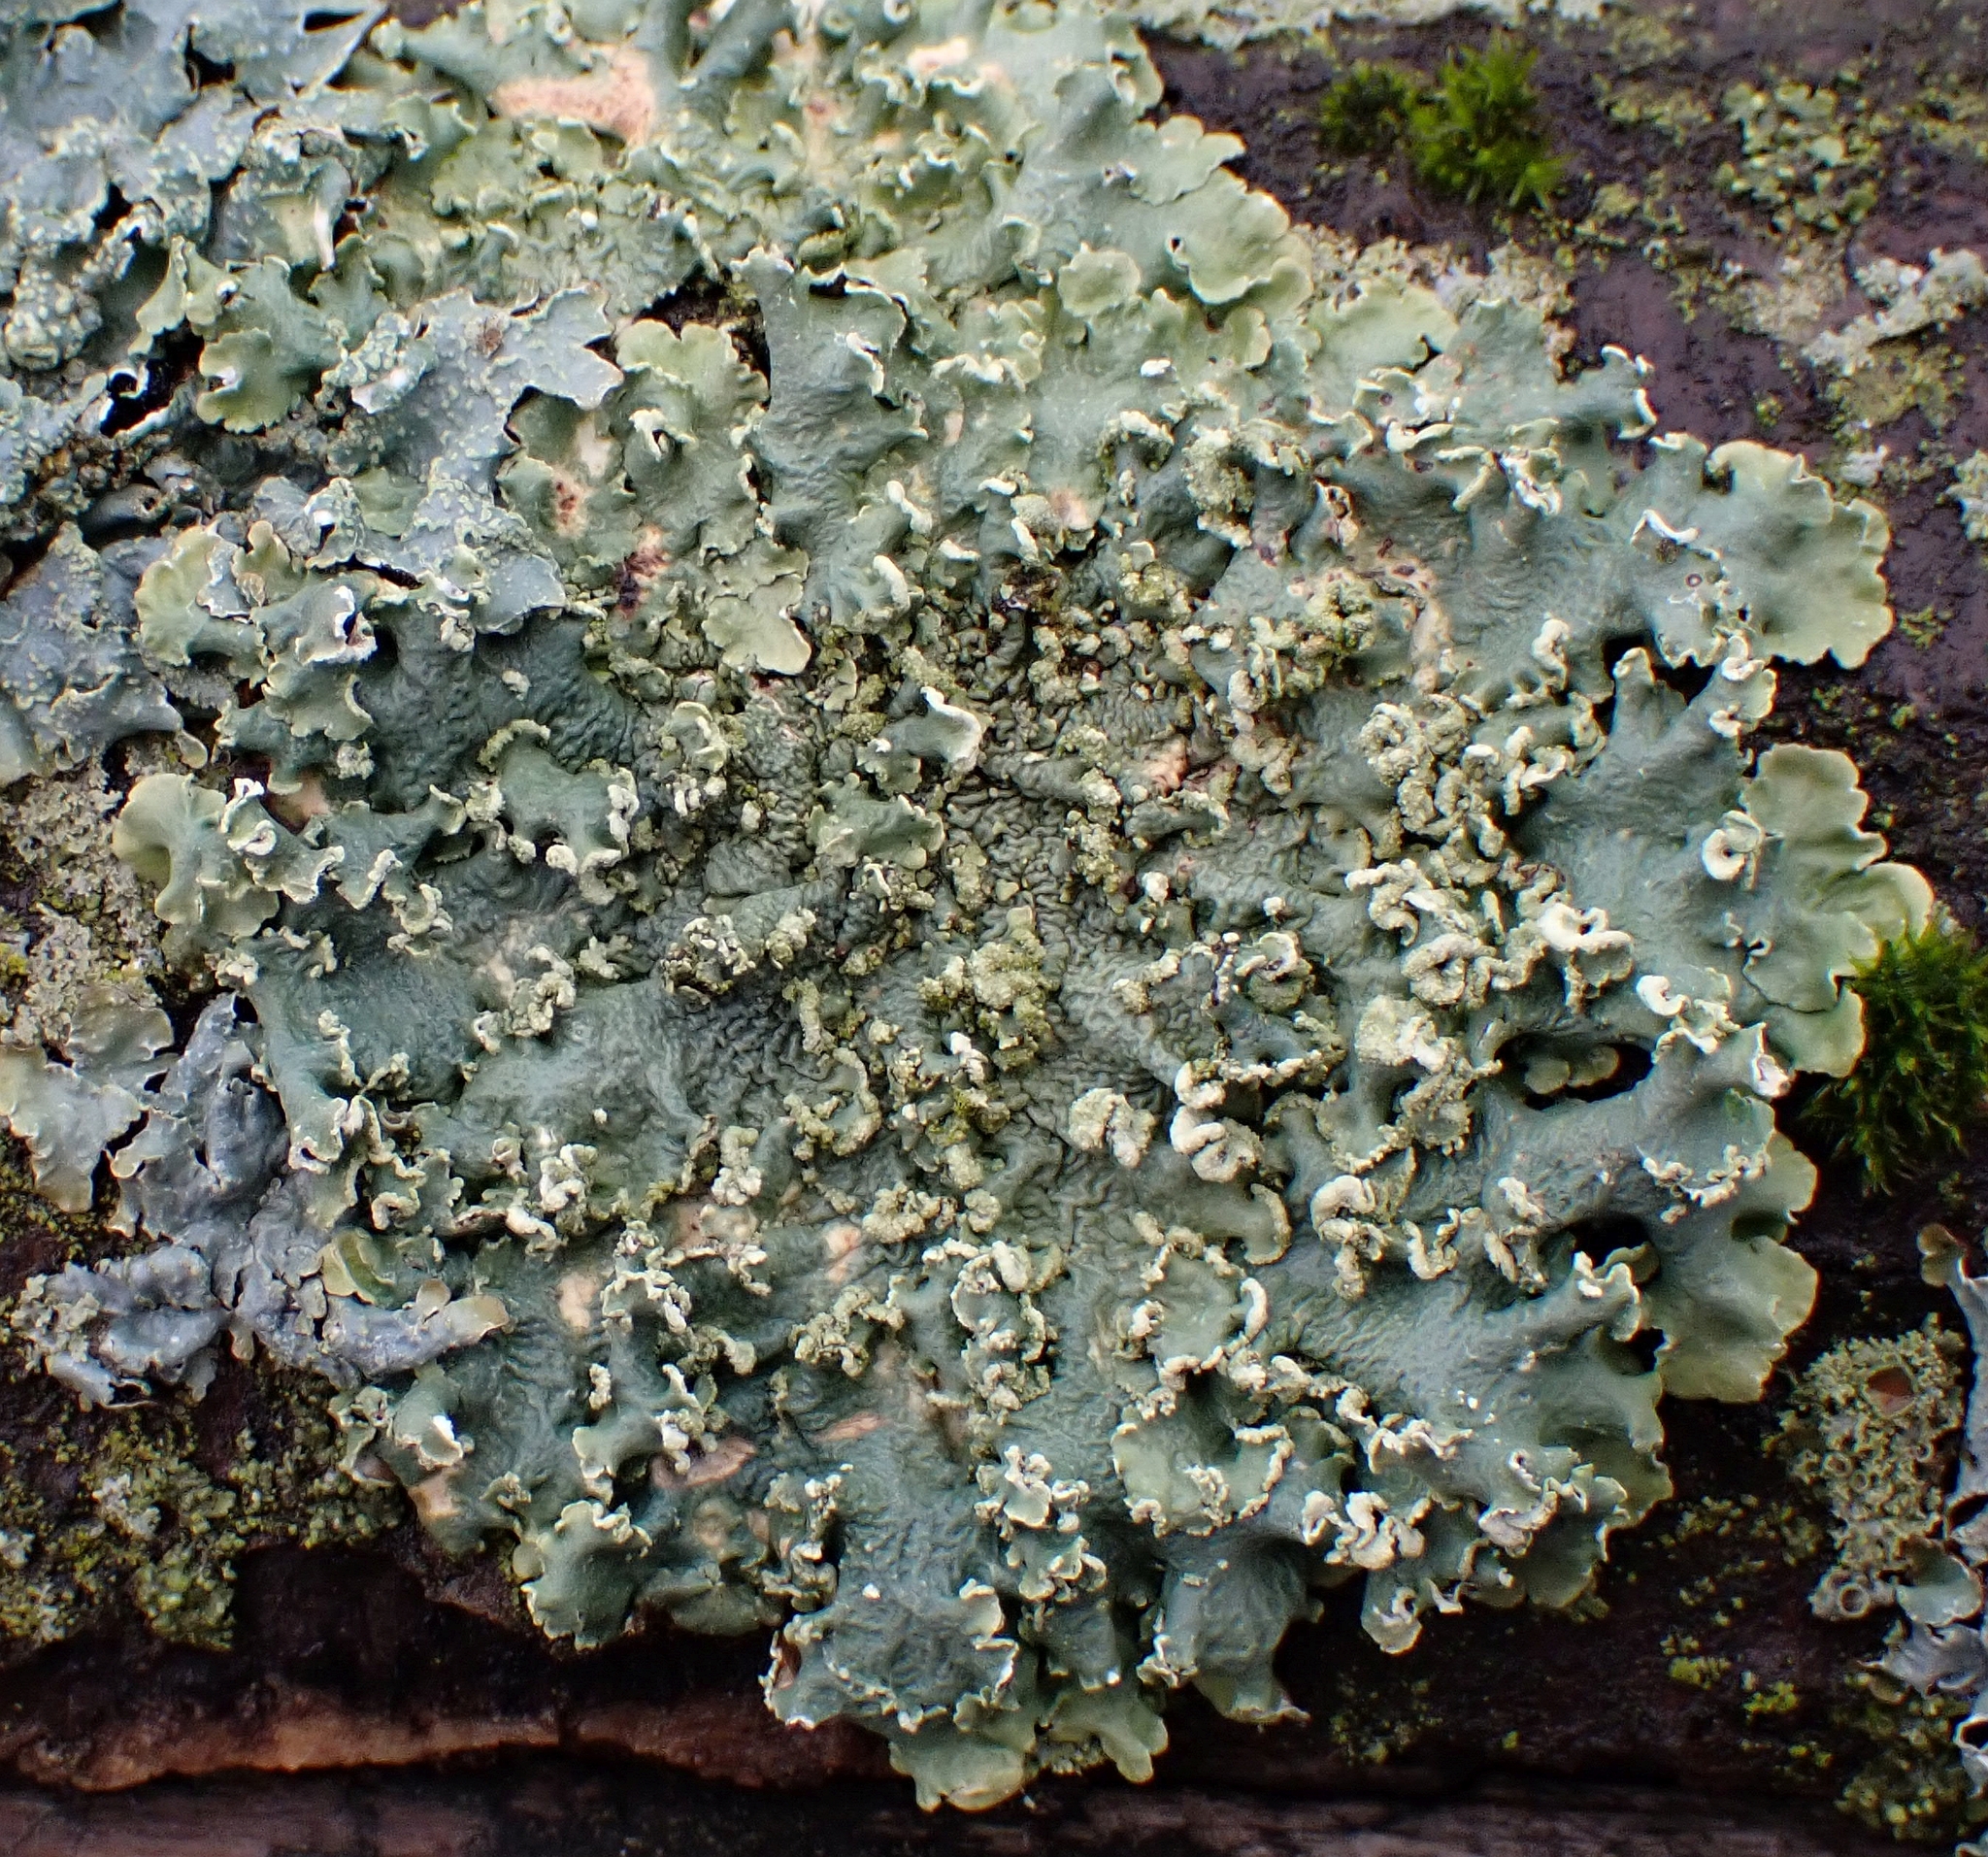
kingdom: Fungi
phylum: Ascomycota
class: Lecanoromycetes
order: Lecanorales
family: Parmeliaceae
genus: Flavopunctelia
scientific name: Flavopunctelia soredica
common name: Powder-edged speckled greenshield
